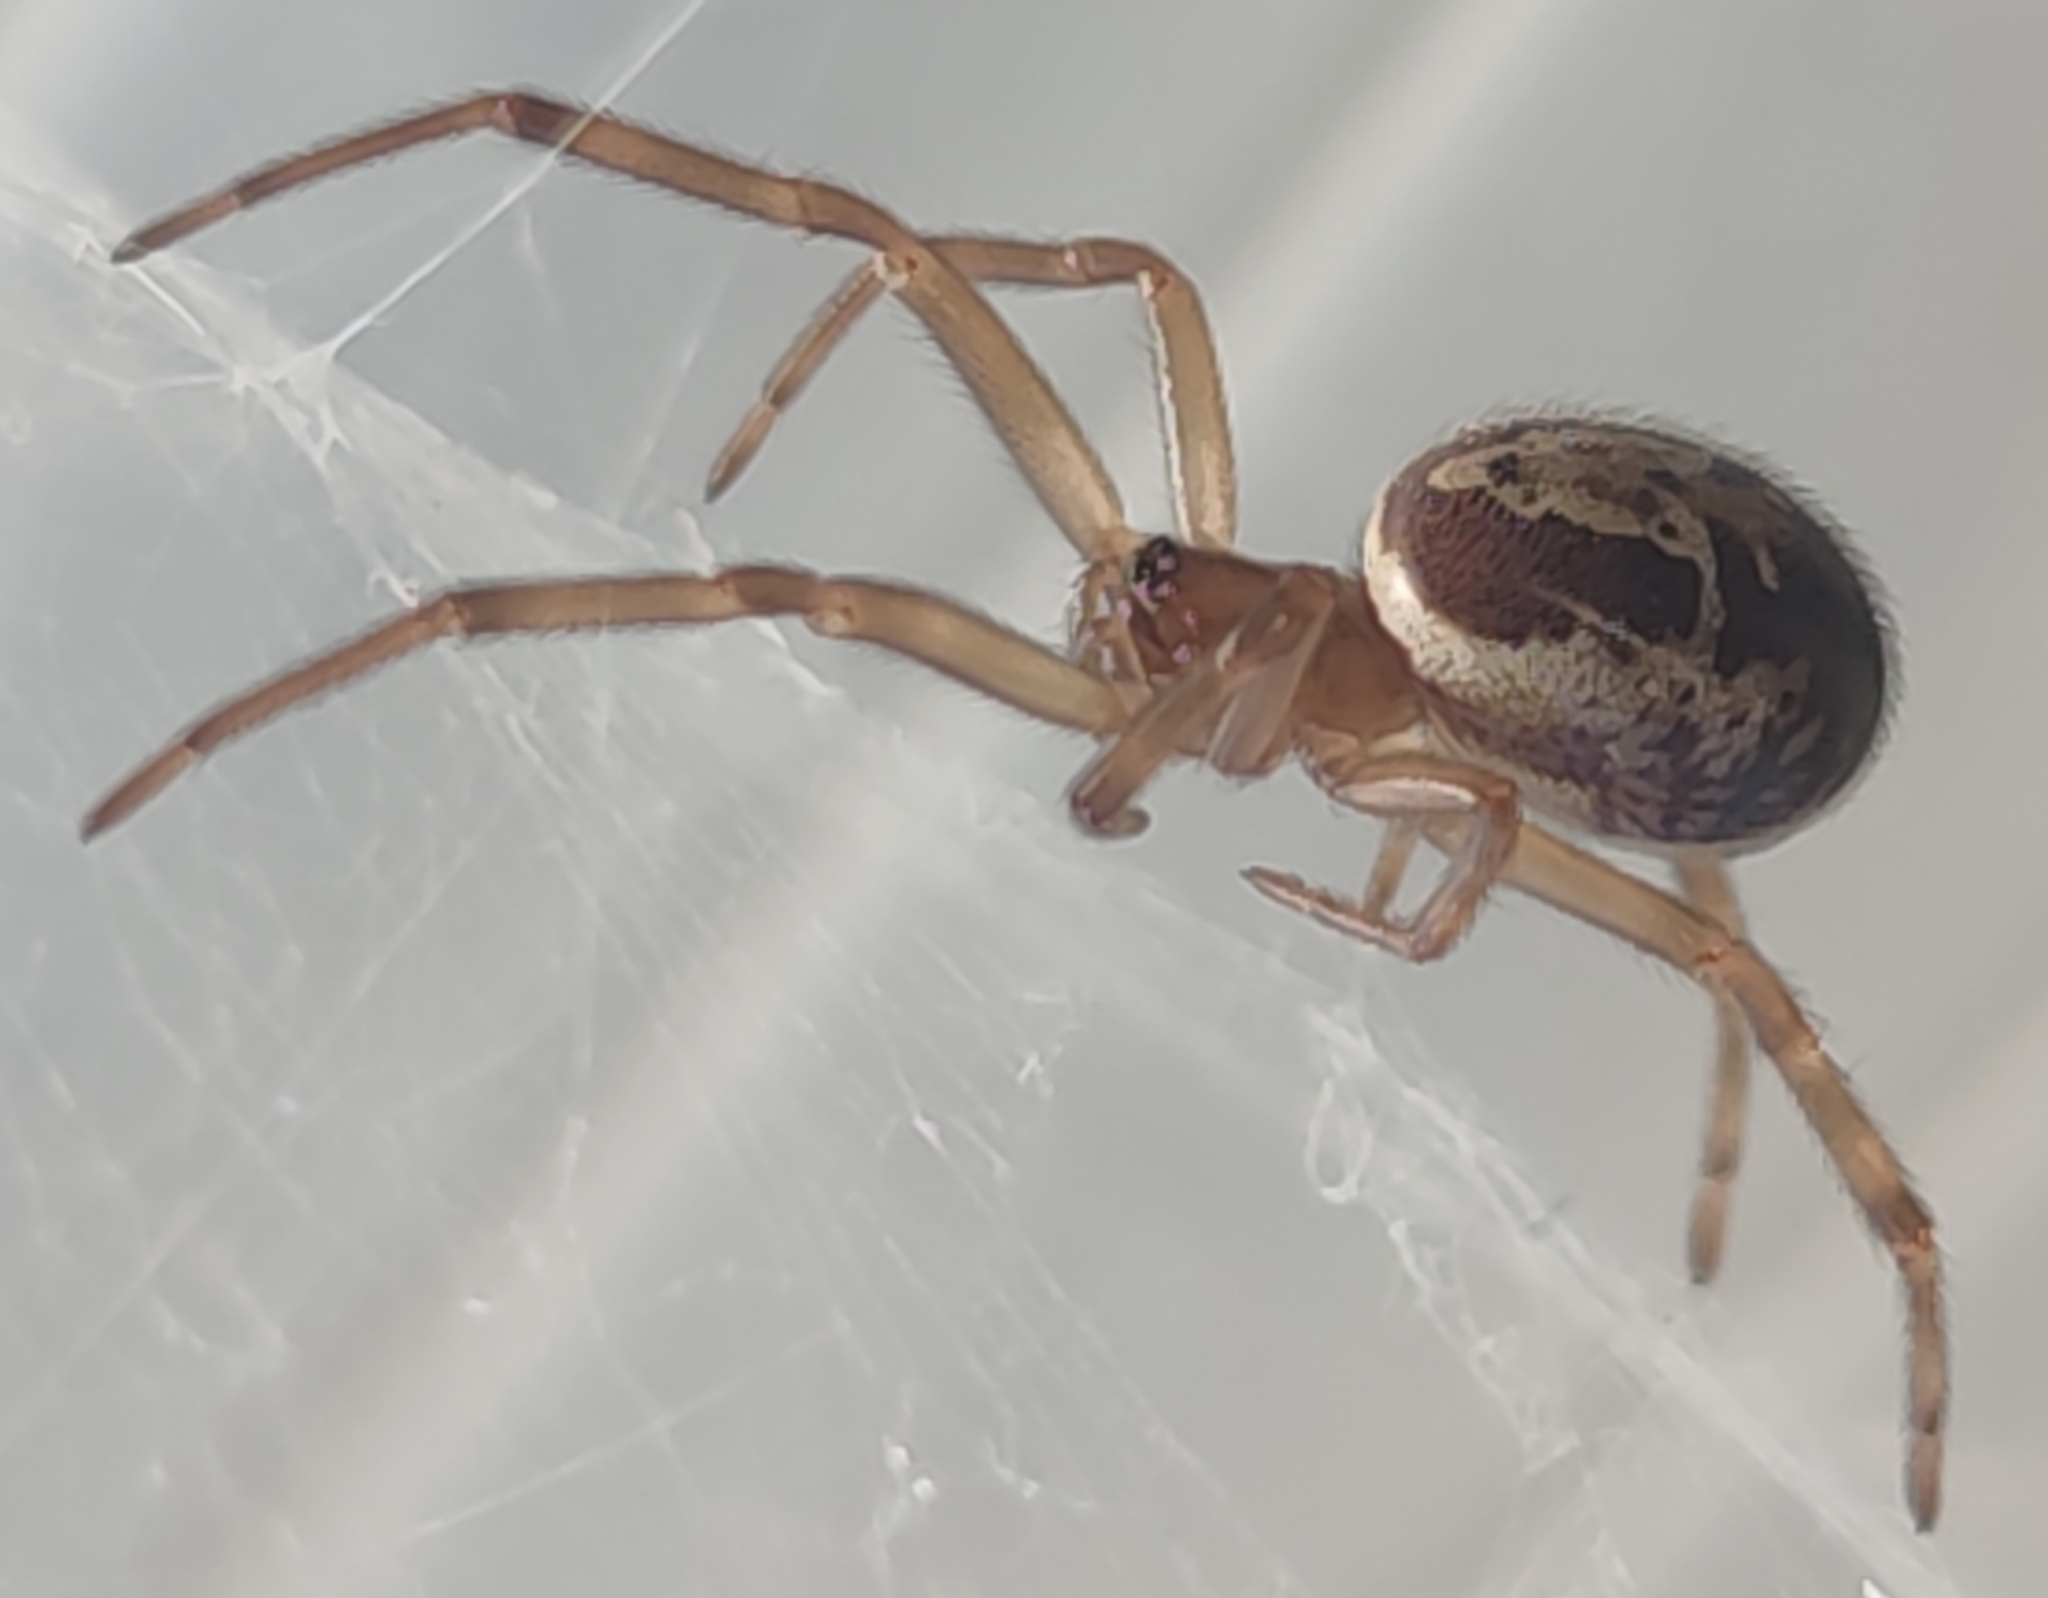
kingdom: Animalia
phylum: Arthropoda
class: Arachnida
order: Araneae
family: Theridiidae
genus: Steatoda
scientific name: Steatoda nobilis
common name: Cobweb weaver
